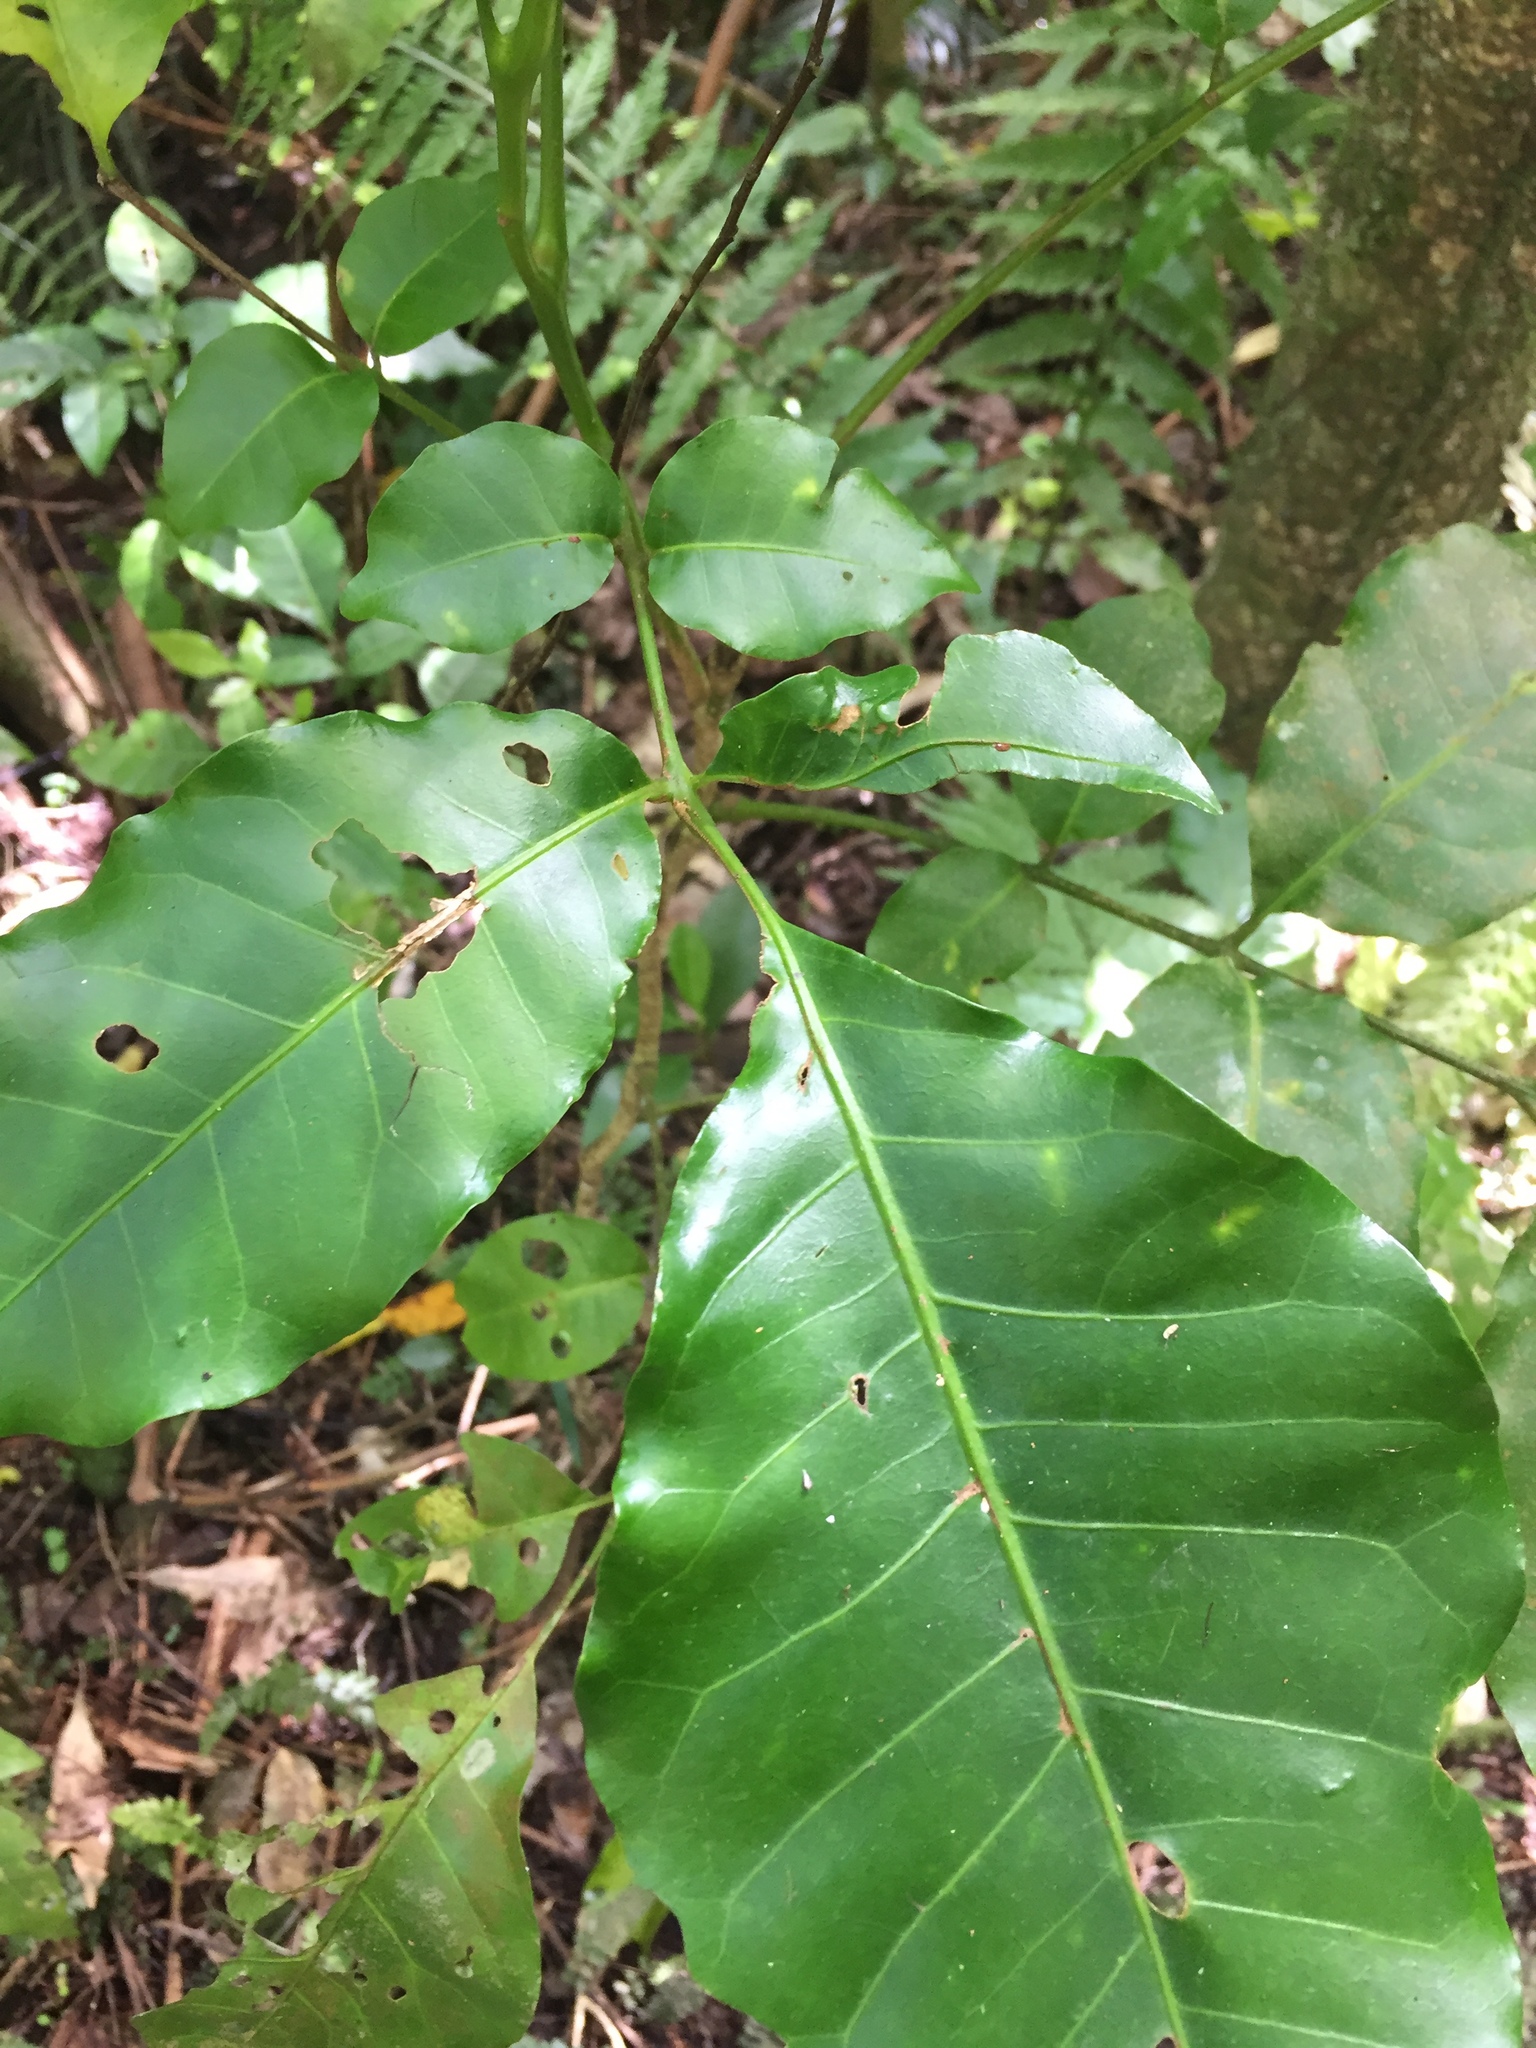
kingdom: Plantae
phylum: Tracheophyta
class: Magnoliopsida
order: Sapindales
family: Meliaceae
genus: Didymocheton
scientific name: Didymocheton spectabilis
